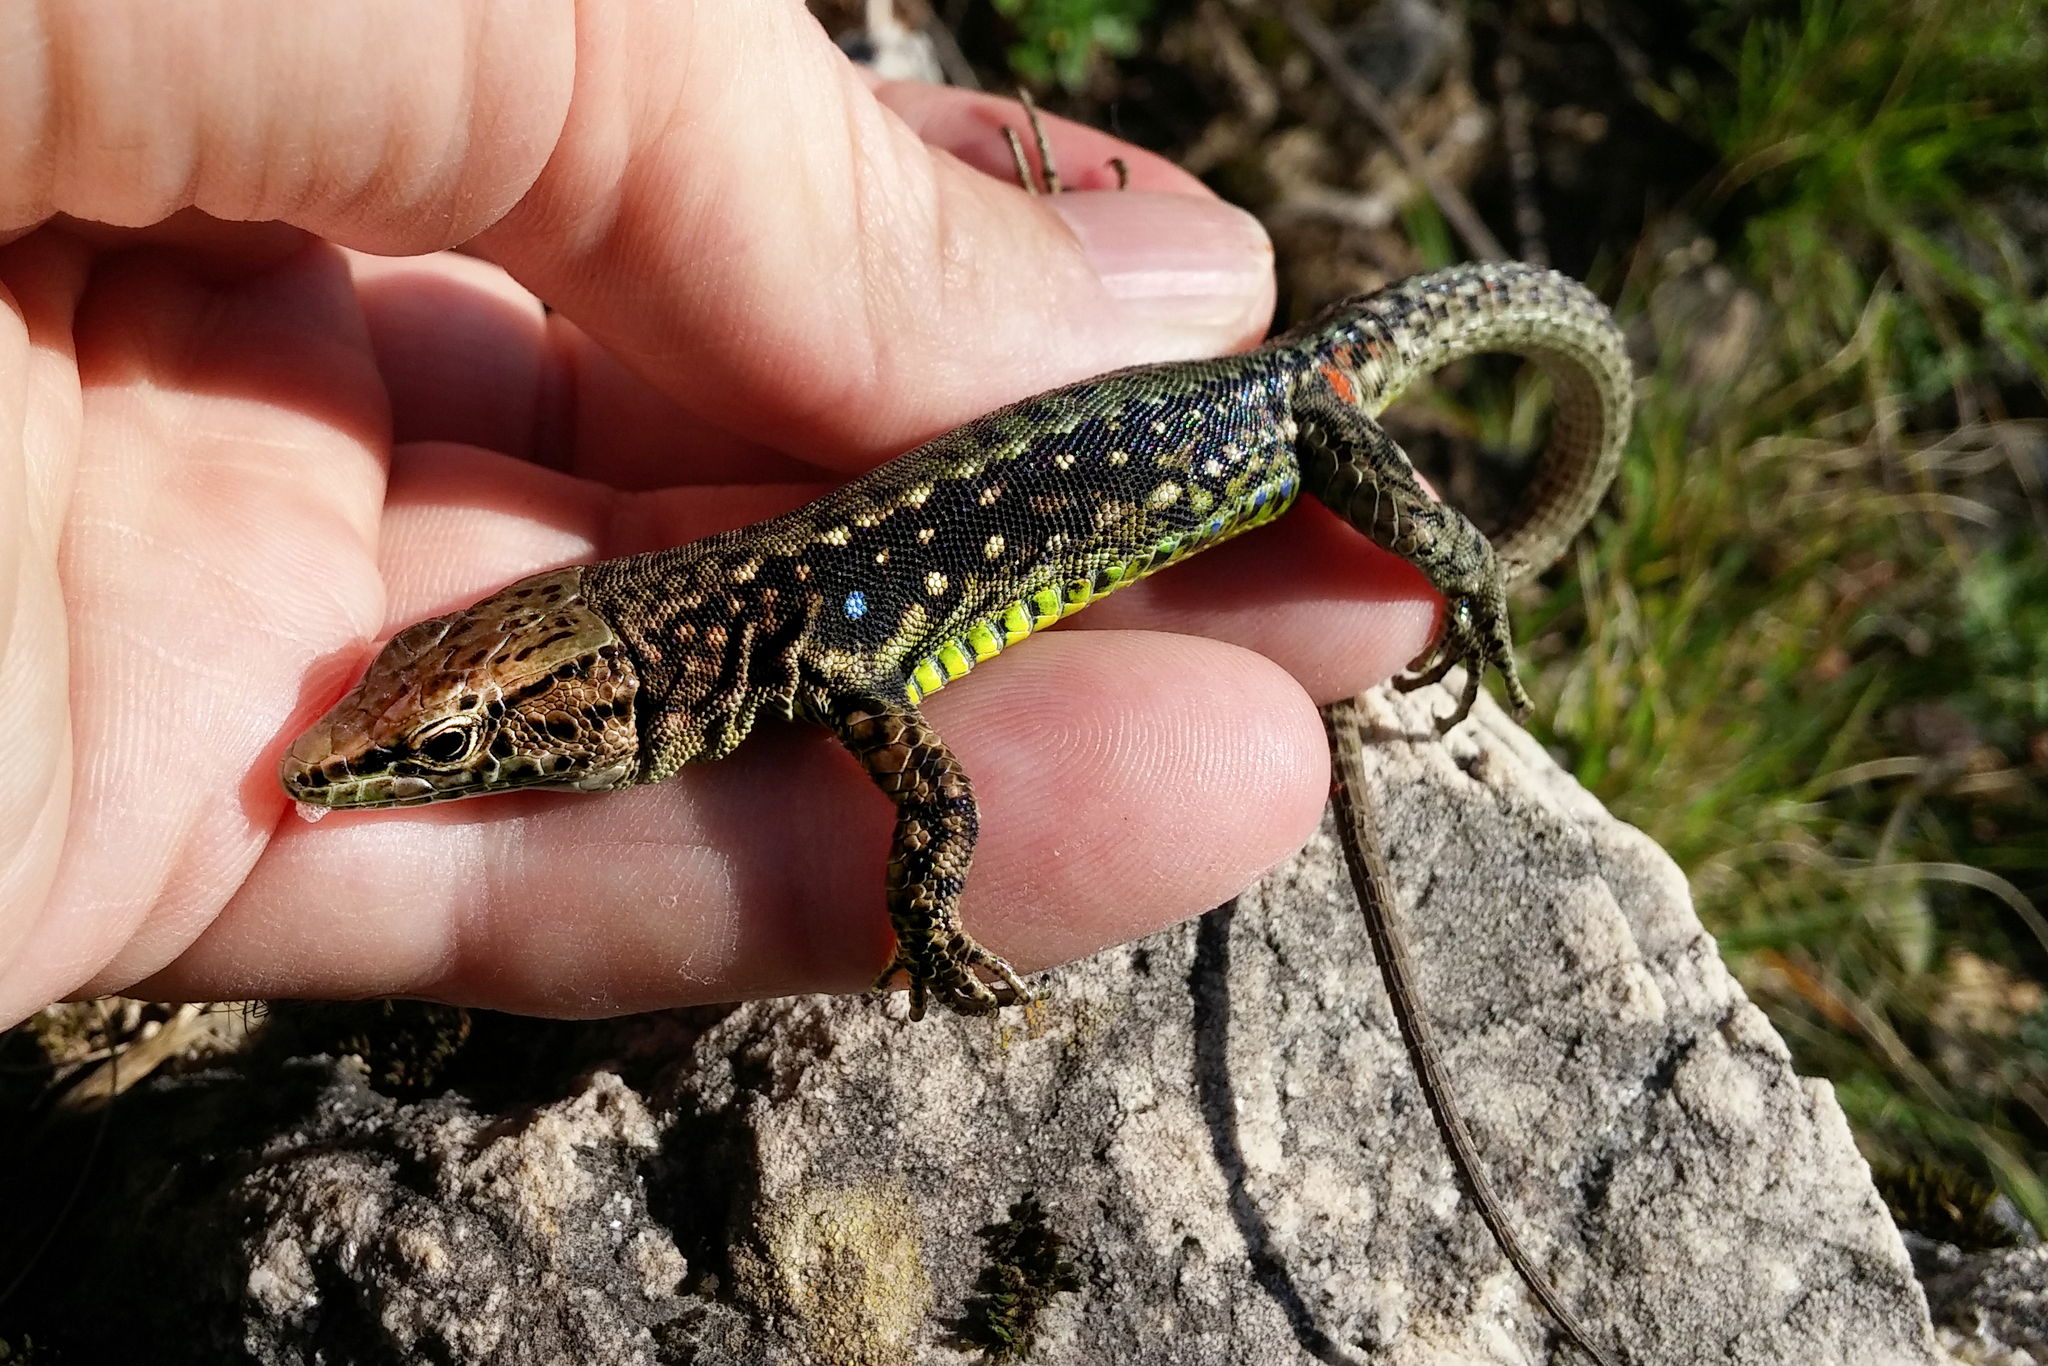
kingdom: Animalia
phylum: Chordata
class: Squamata
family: Lacertidae
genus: Darevskia
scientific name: Darevskia brauneri
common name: Brauner's rock lizard
